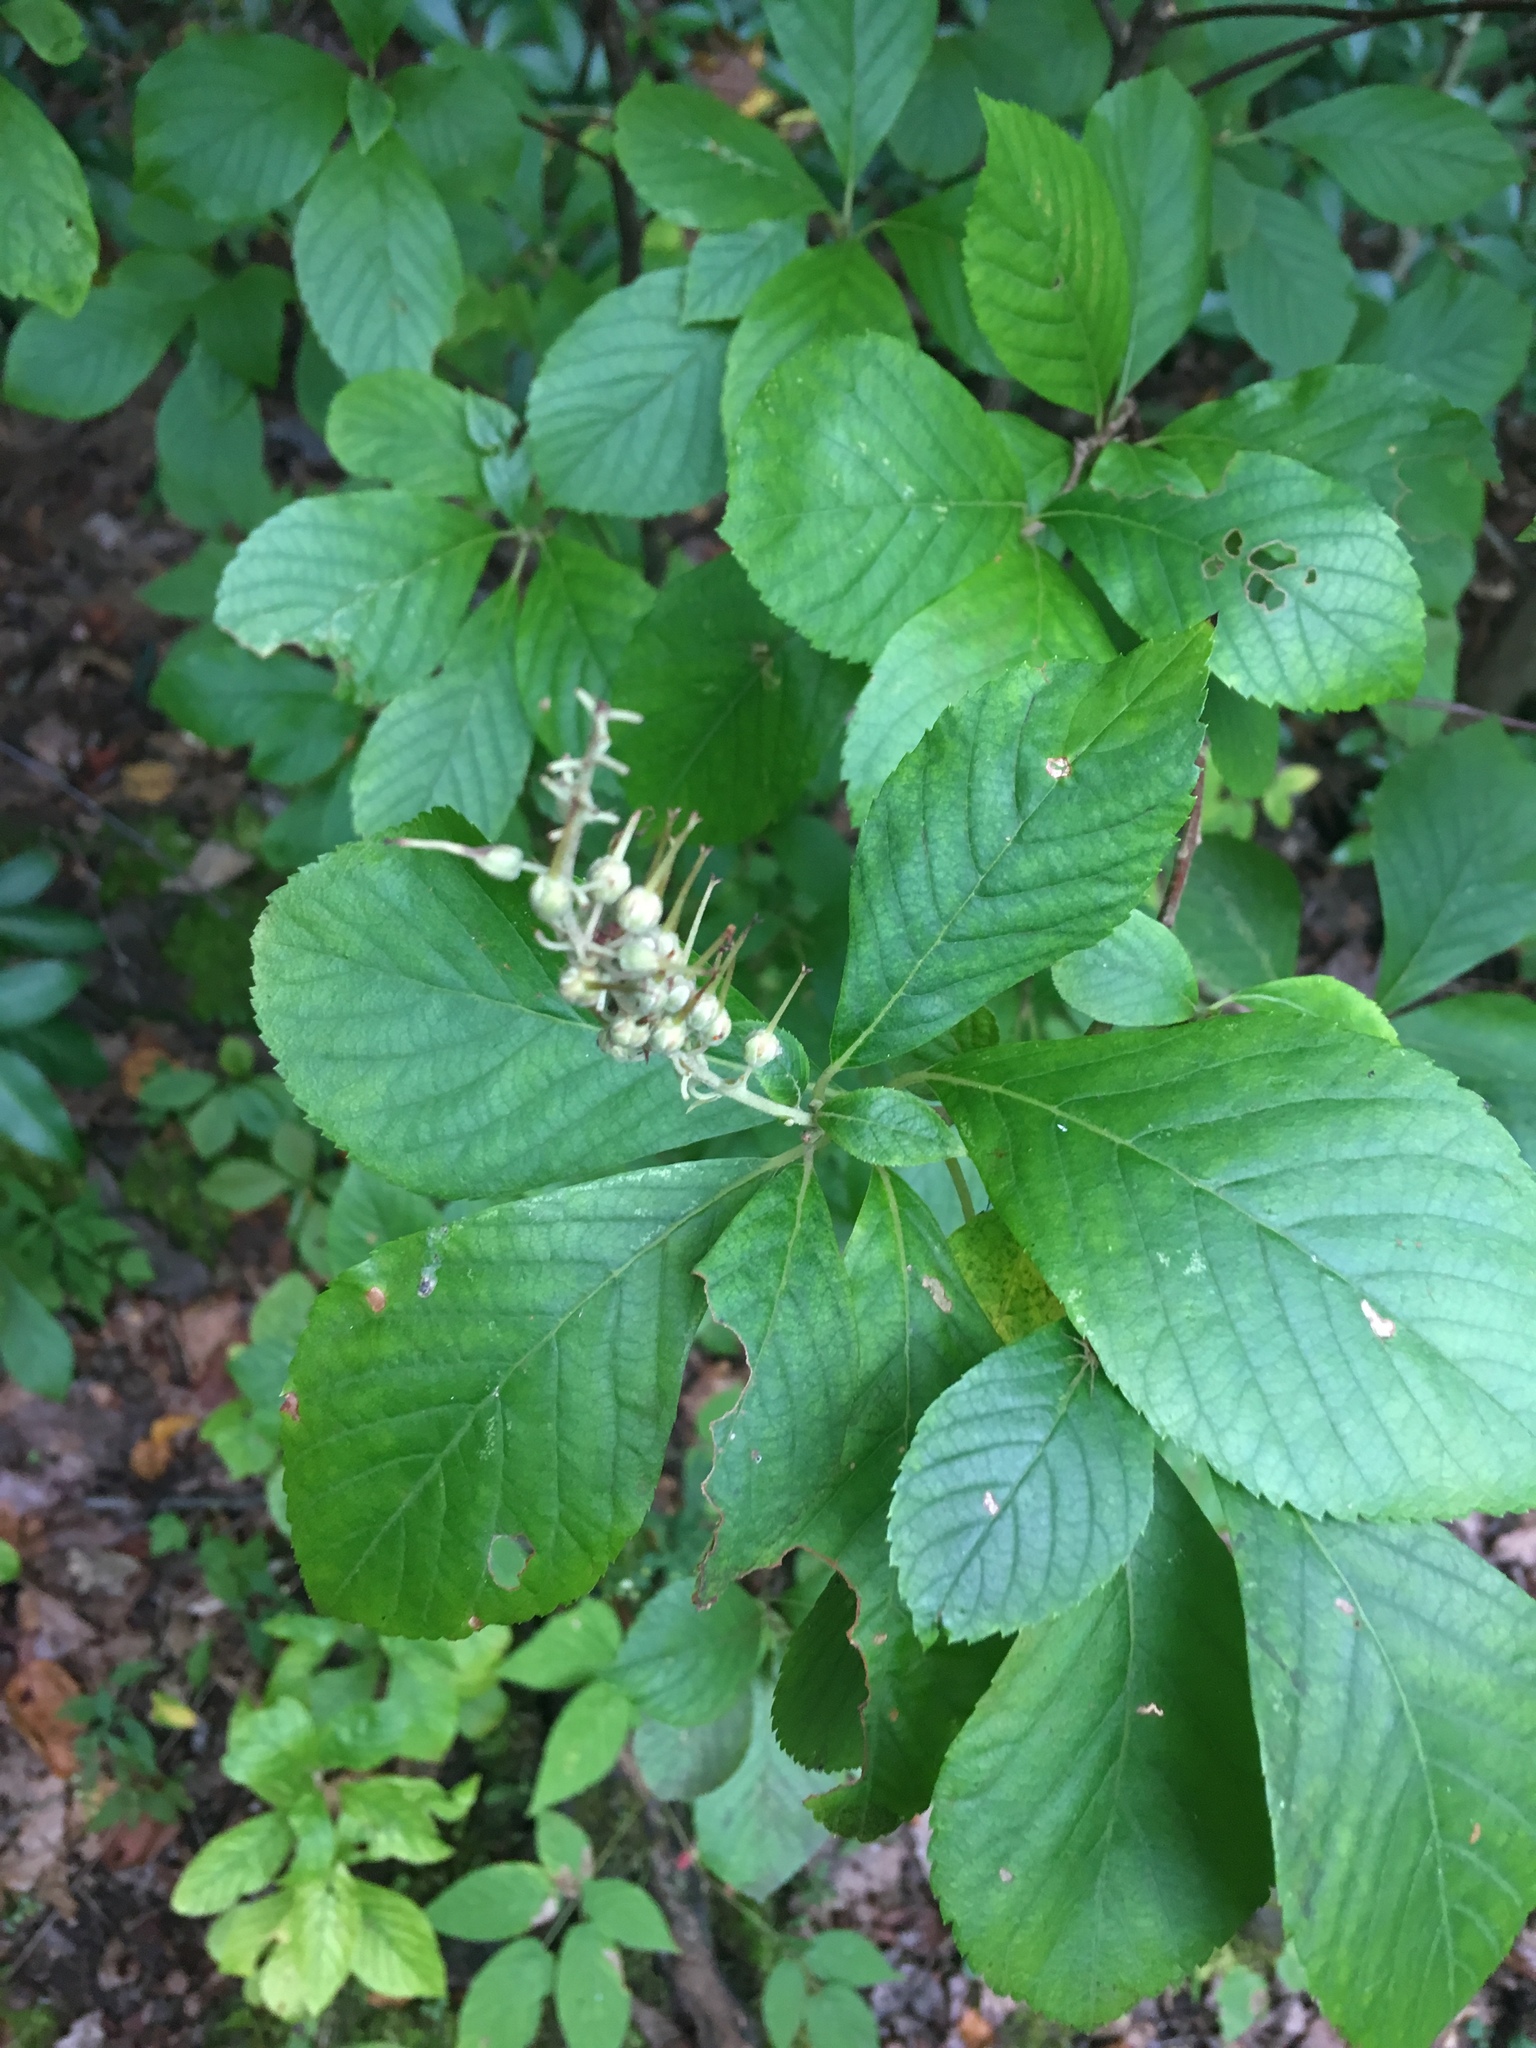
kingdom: Plantae
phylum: Tracheophyta
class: Magnoliopsida
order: Ericales
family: Clethraceae
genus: Clethra
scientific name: Clethra alnifolia
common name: Sweet pepperbush
